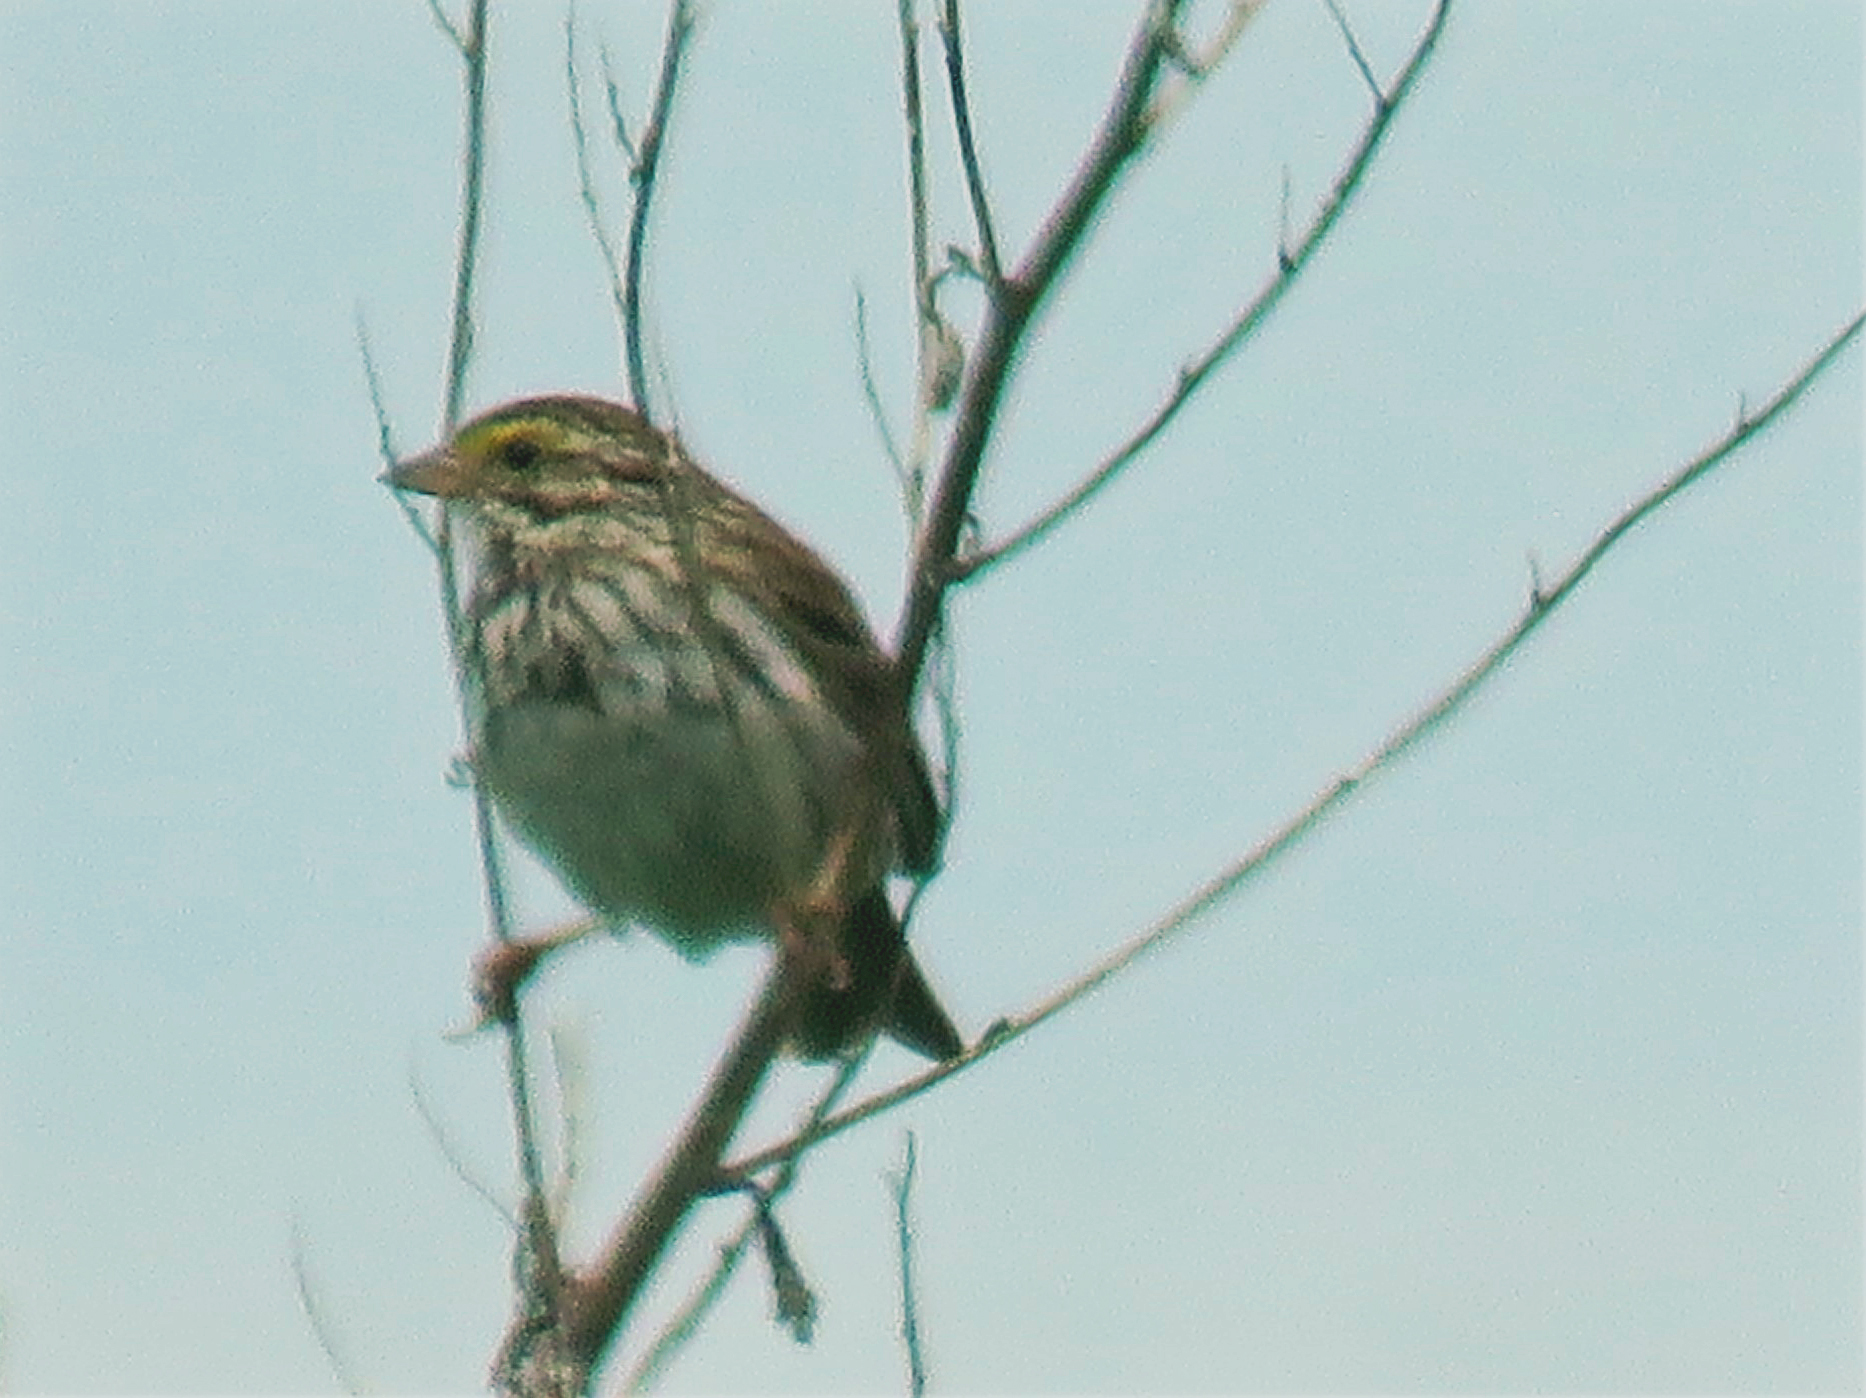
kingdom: Animalia
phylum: Chordata
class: Aves
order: Passeriformes
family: Passerellidae
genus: Passerculus
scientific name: Passerculus sandwichensis
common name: Savannah sparrow
